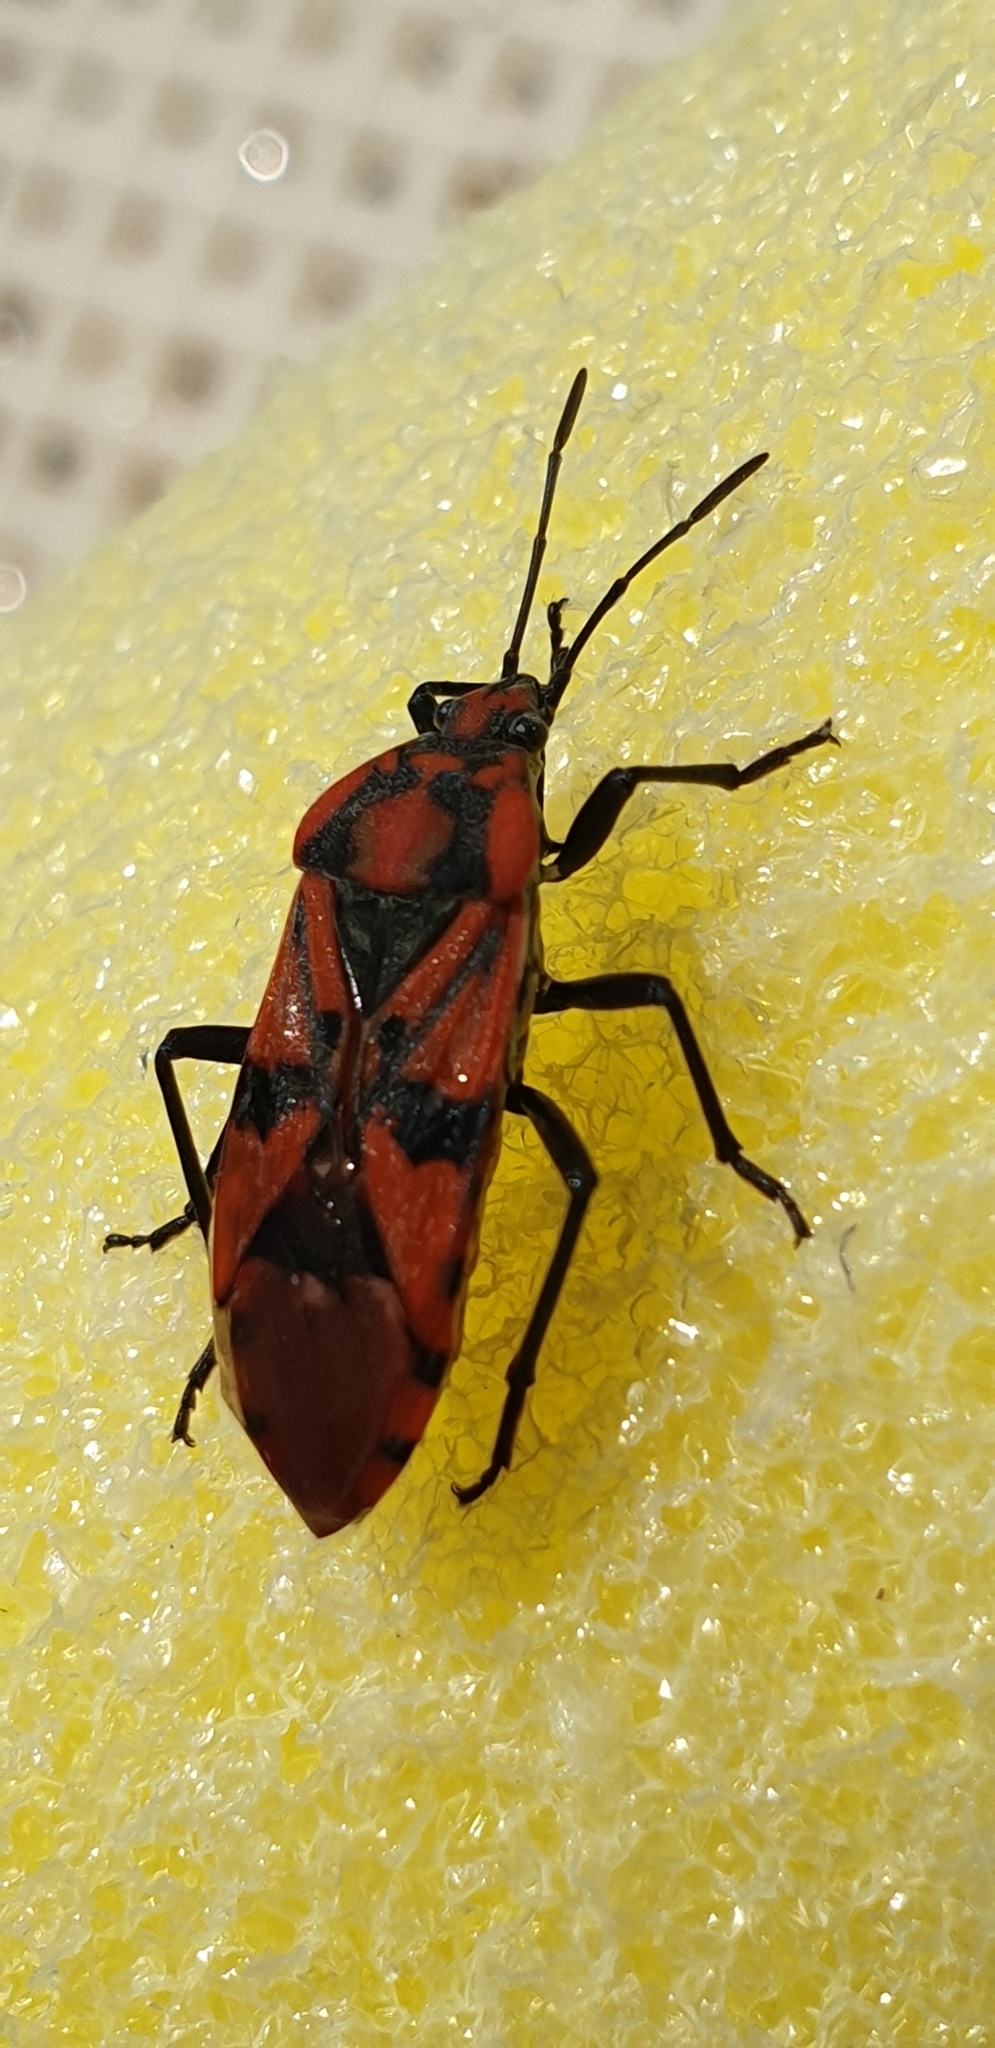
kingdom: Animalia
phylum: Arthropoda
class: Insecta
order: Hemiptera
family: Lygaeidae
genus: Spilostethus
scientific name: Spilostethus pandurus
